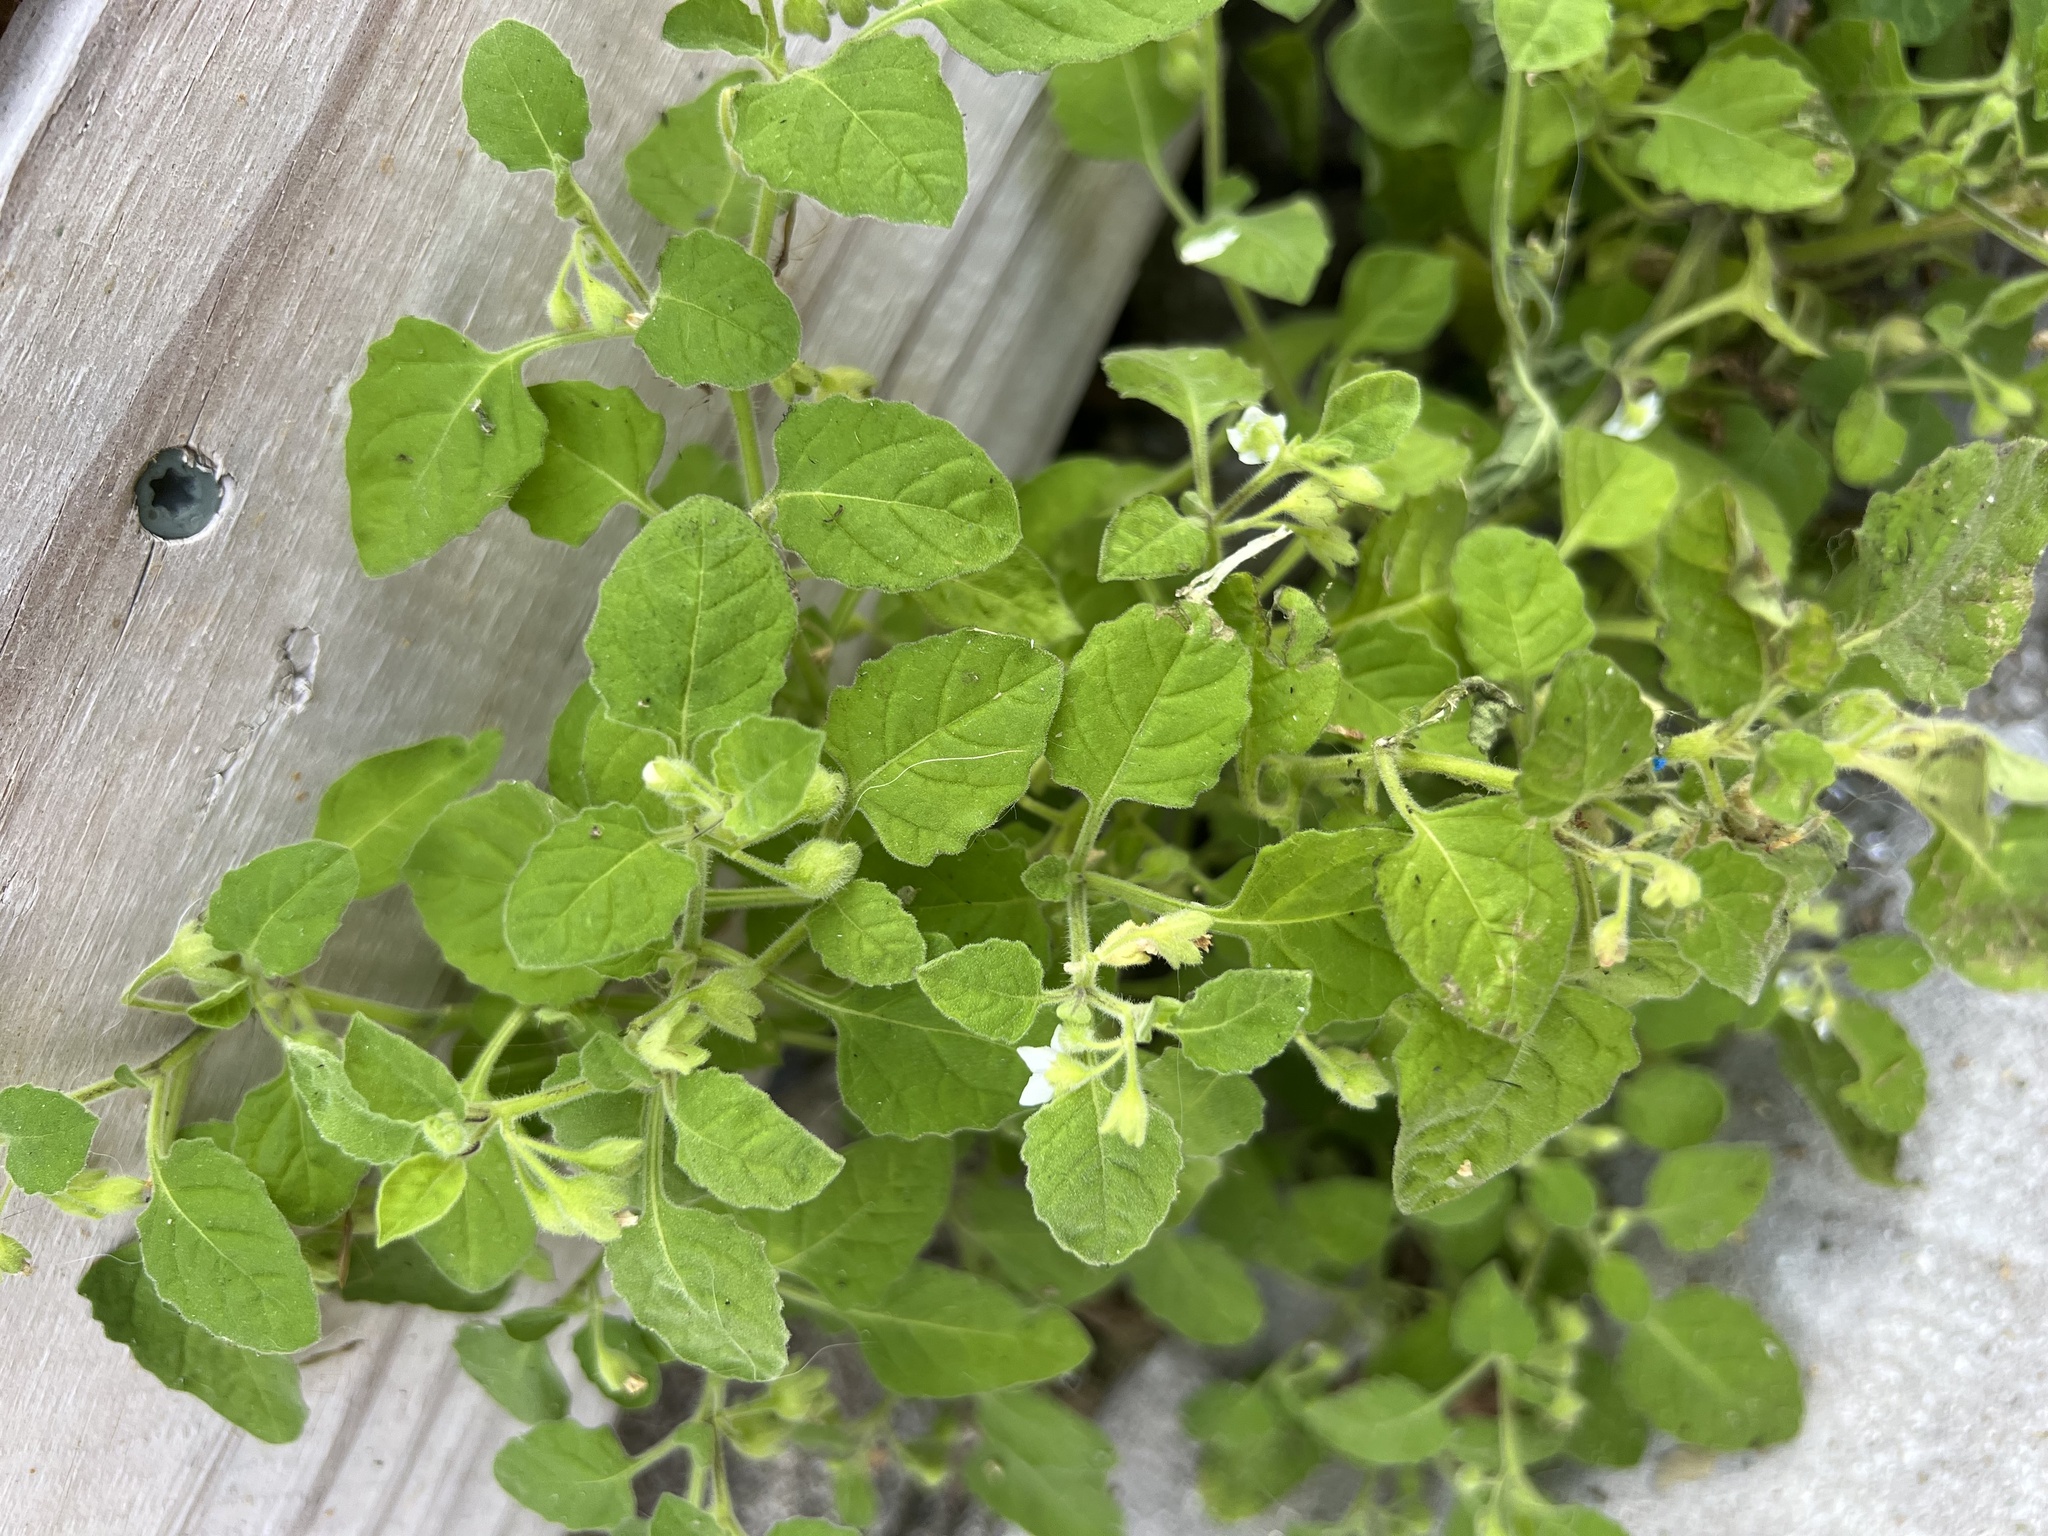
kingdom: Plantae
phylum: Tracheophyta
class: Magnoliopsida
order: Solanales
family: Solanaceae
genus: Solanum
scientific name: Solanum sarrachoides
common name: Leafy-fruited nightshade
